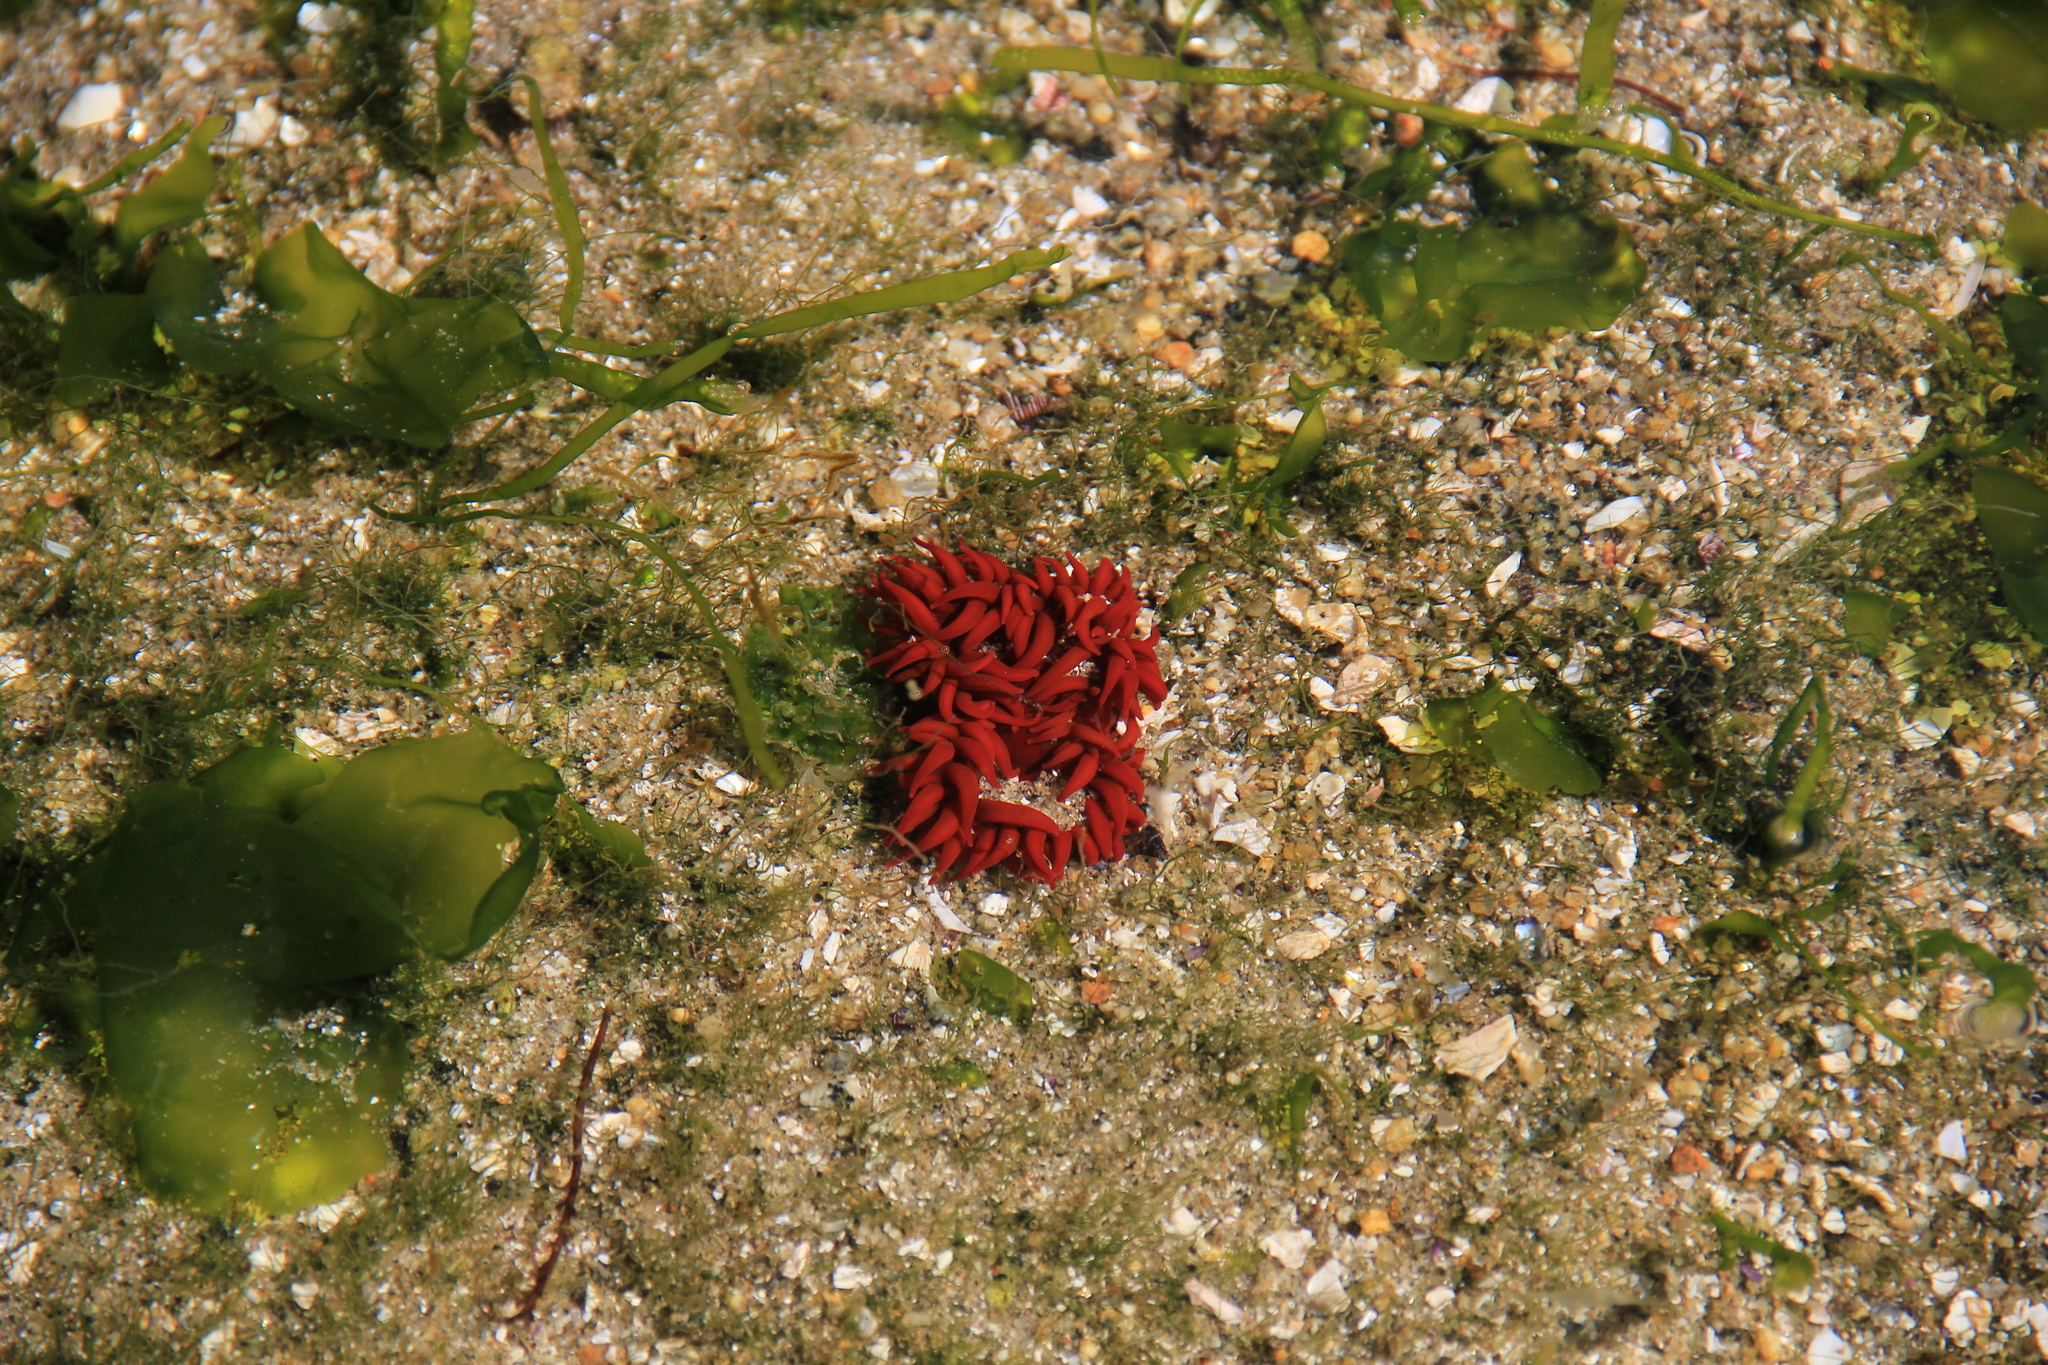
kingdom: Animalia
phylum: Cnidaria
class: Anthozoa
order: Actiniaria
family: Actiniidae
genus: Anemonia
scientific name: Anemonia alicemartinae
